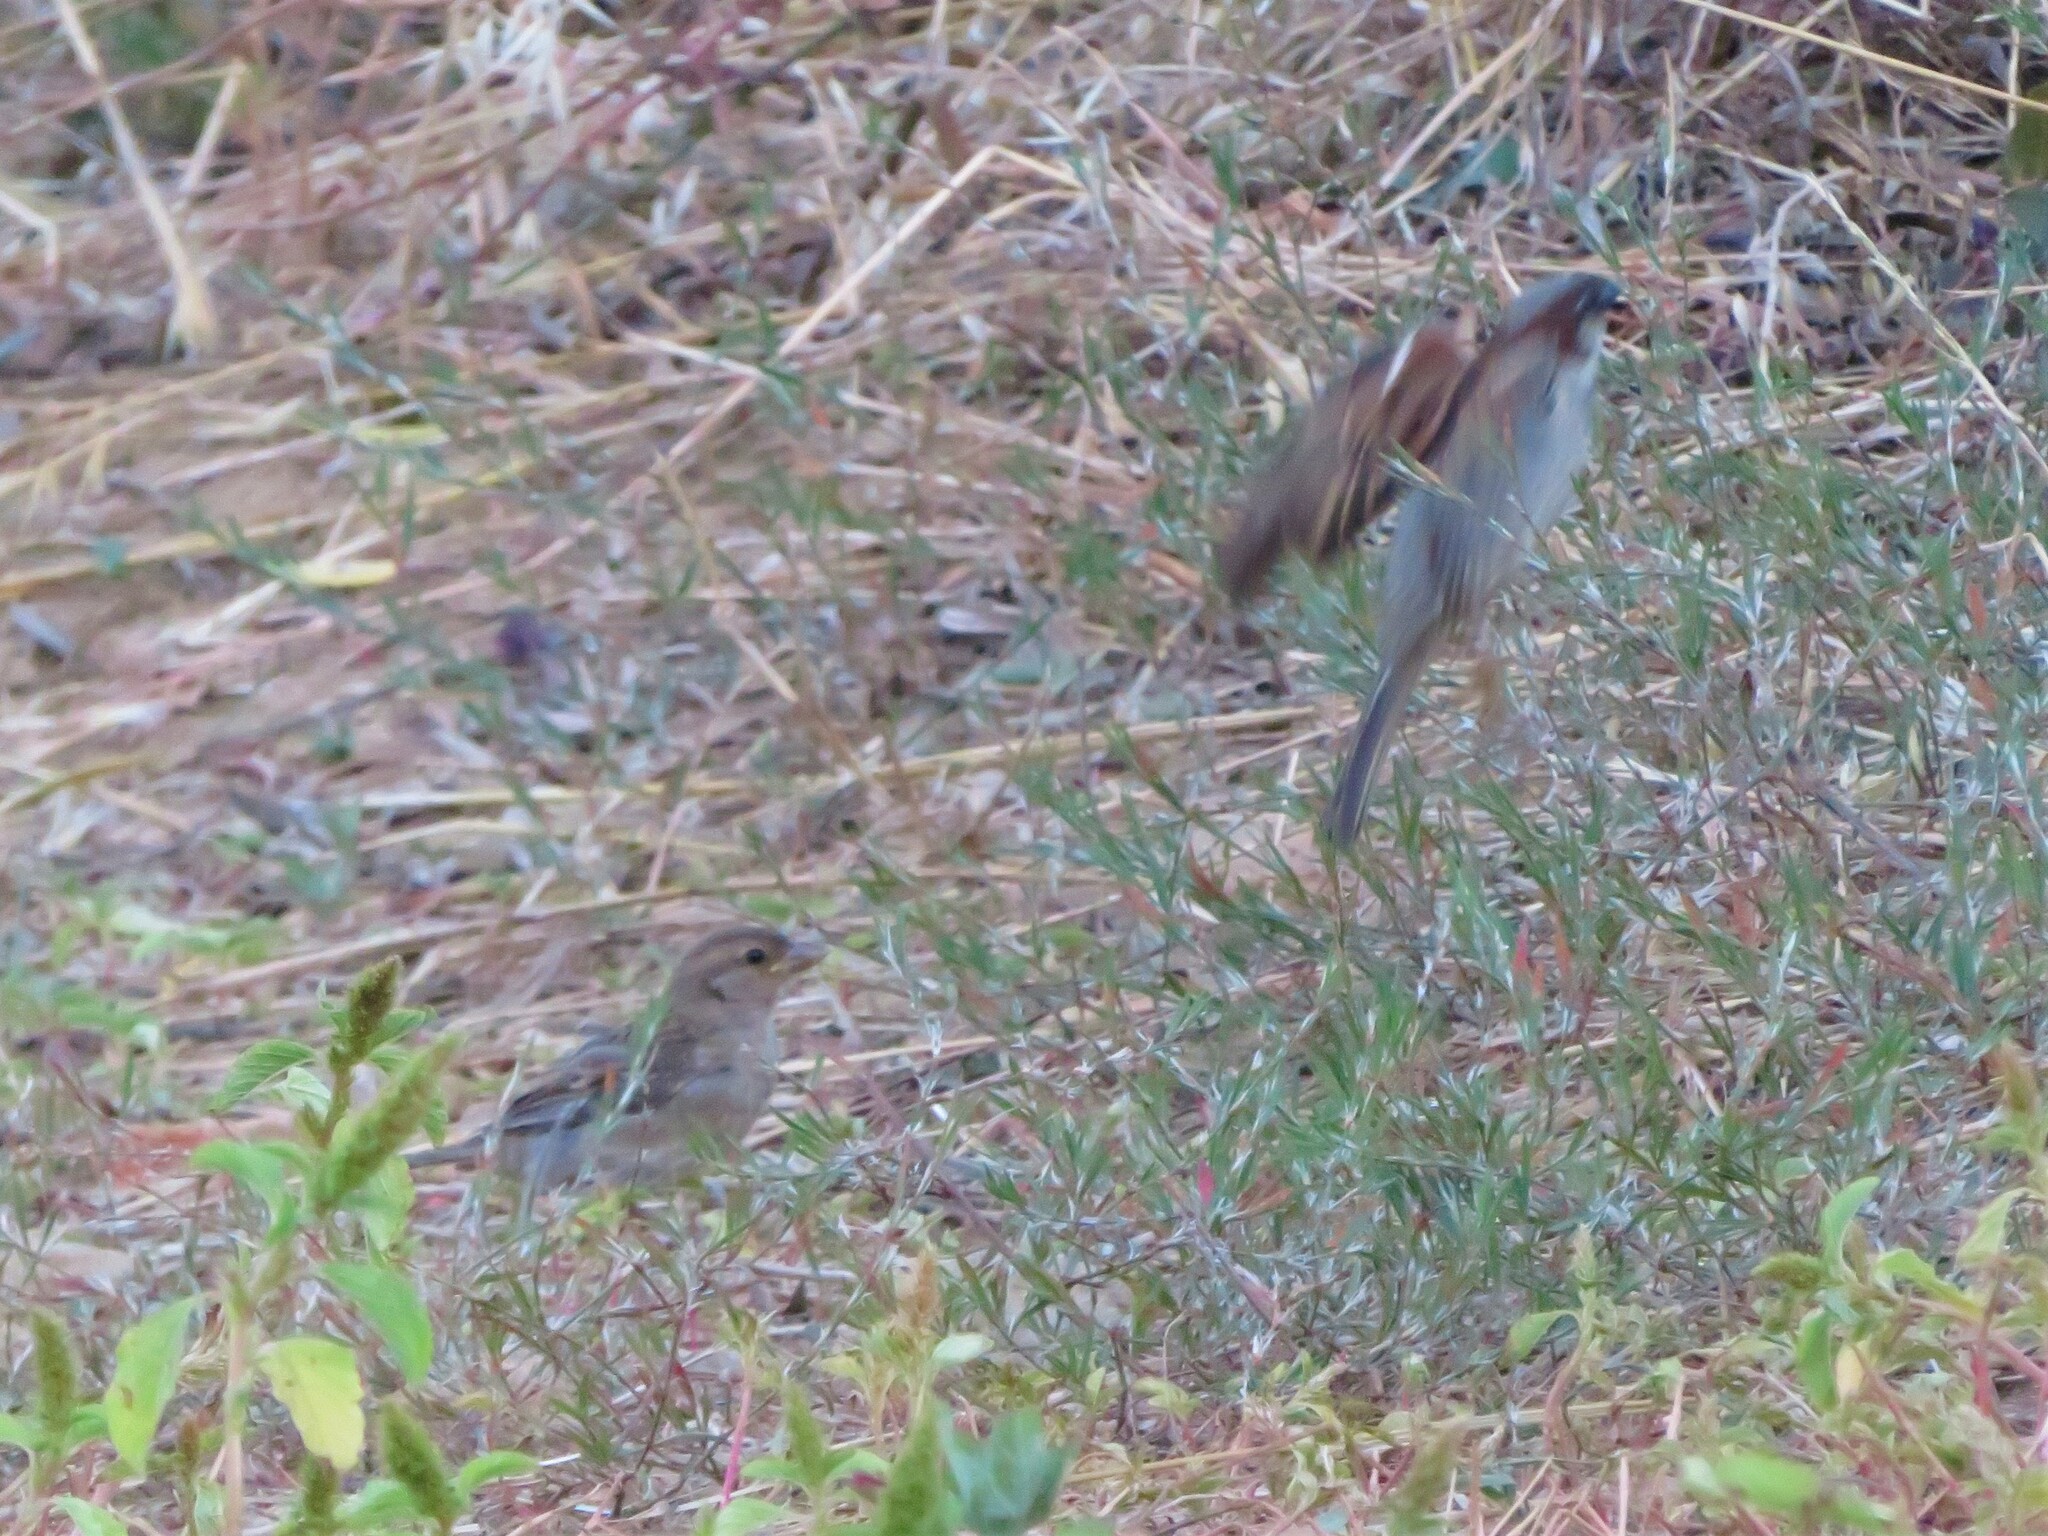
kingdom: Animalia
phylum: Chordata
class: Aves
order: Passeriformes
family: Passeridae
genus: Passer
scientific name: Passer domesticus
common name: House sparrow
